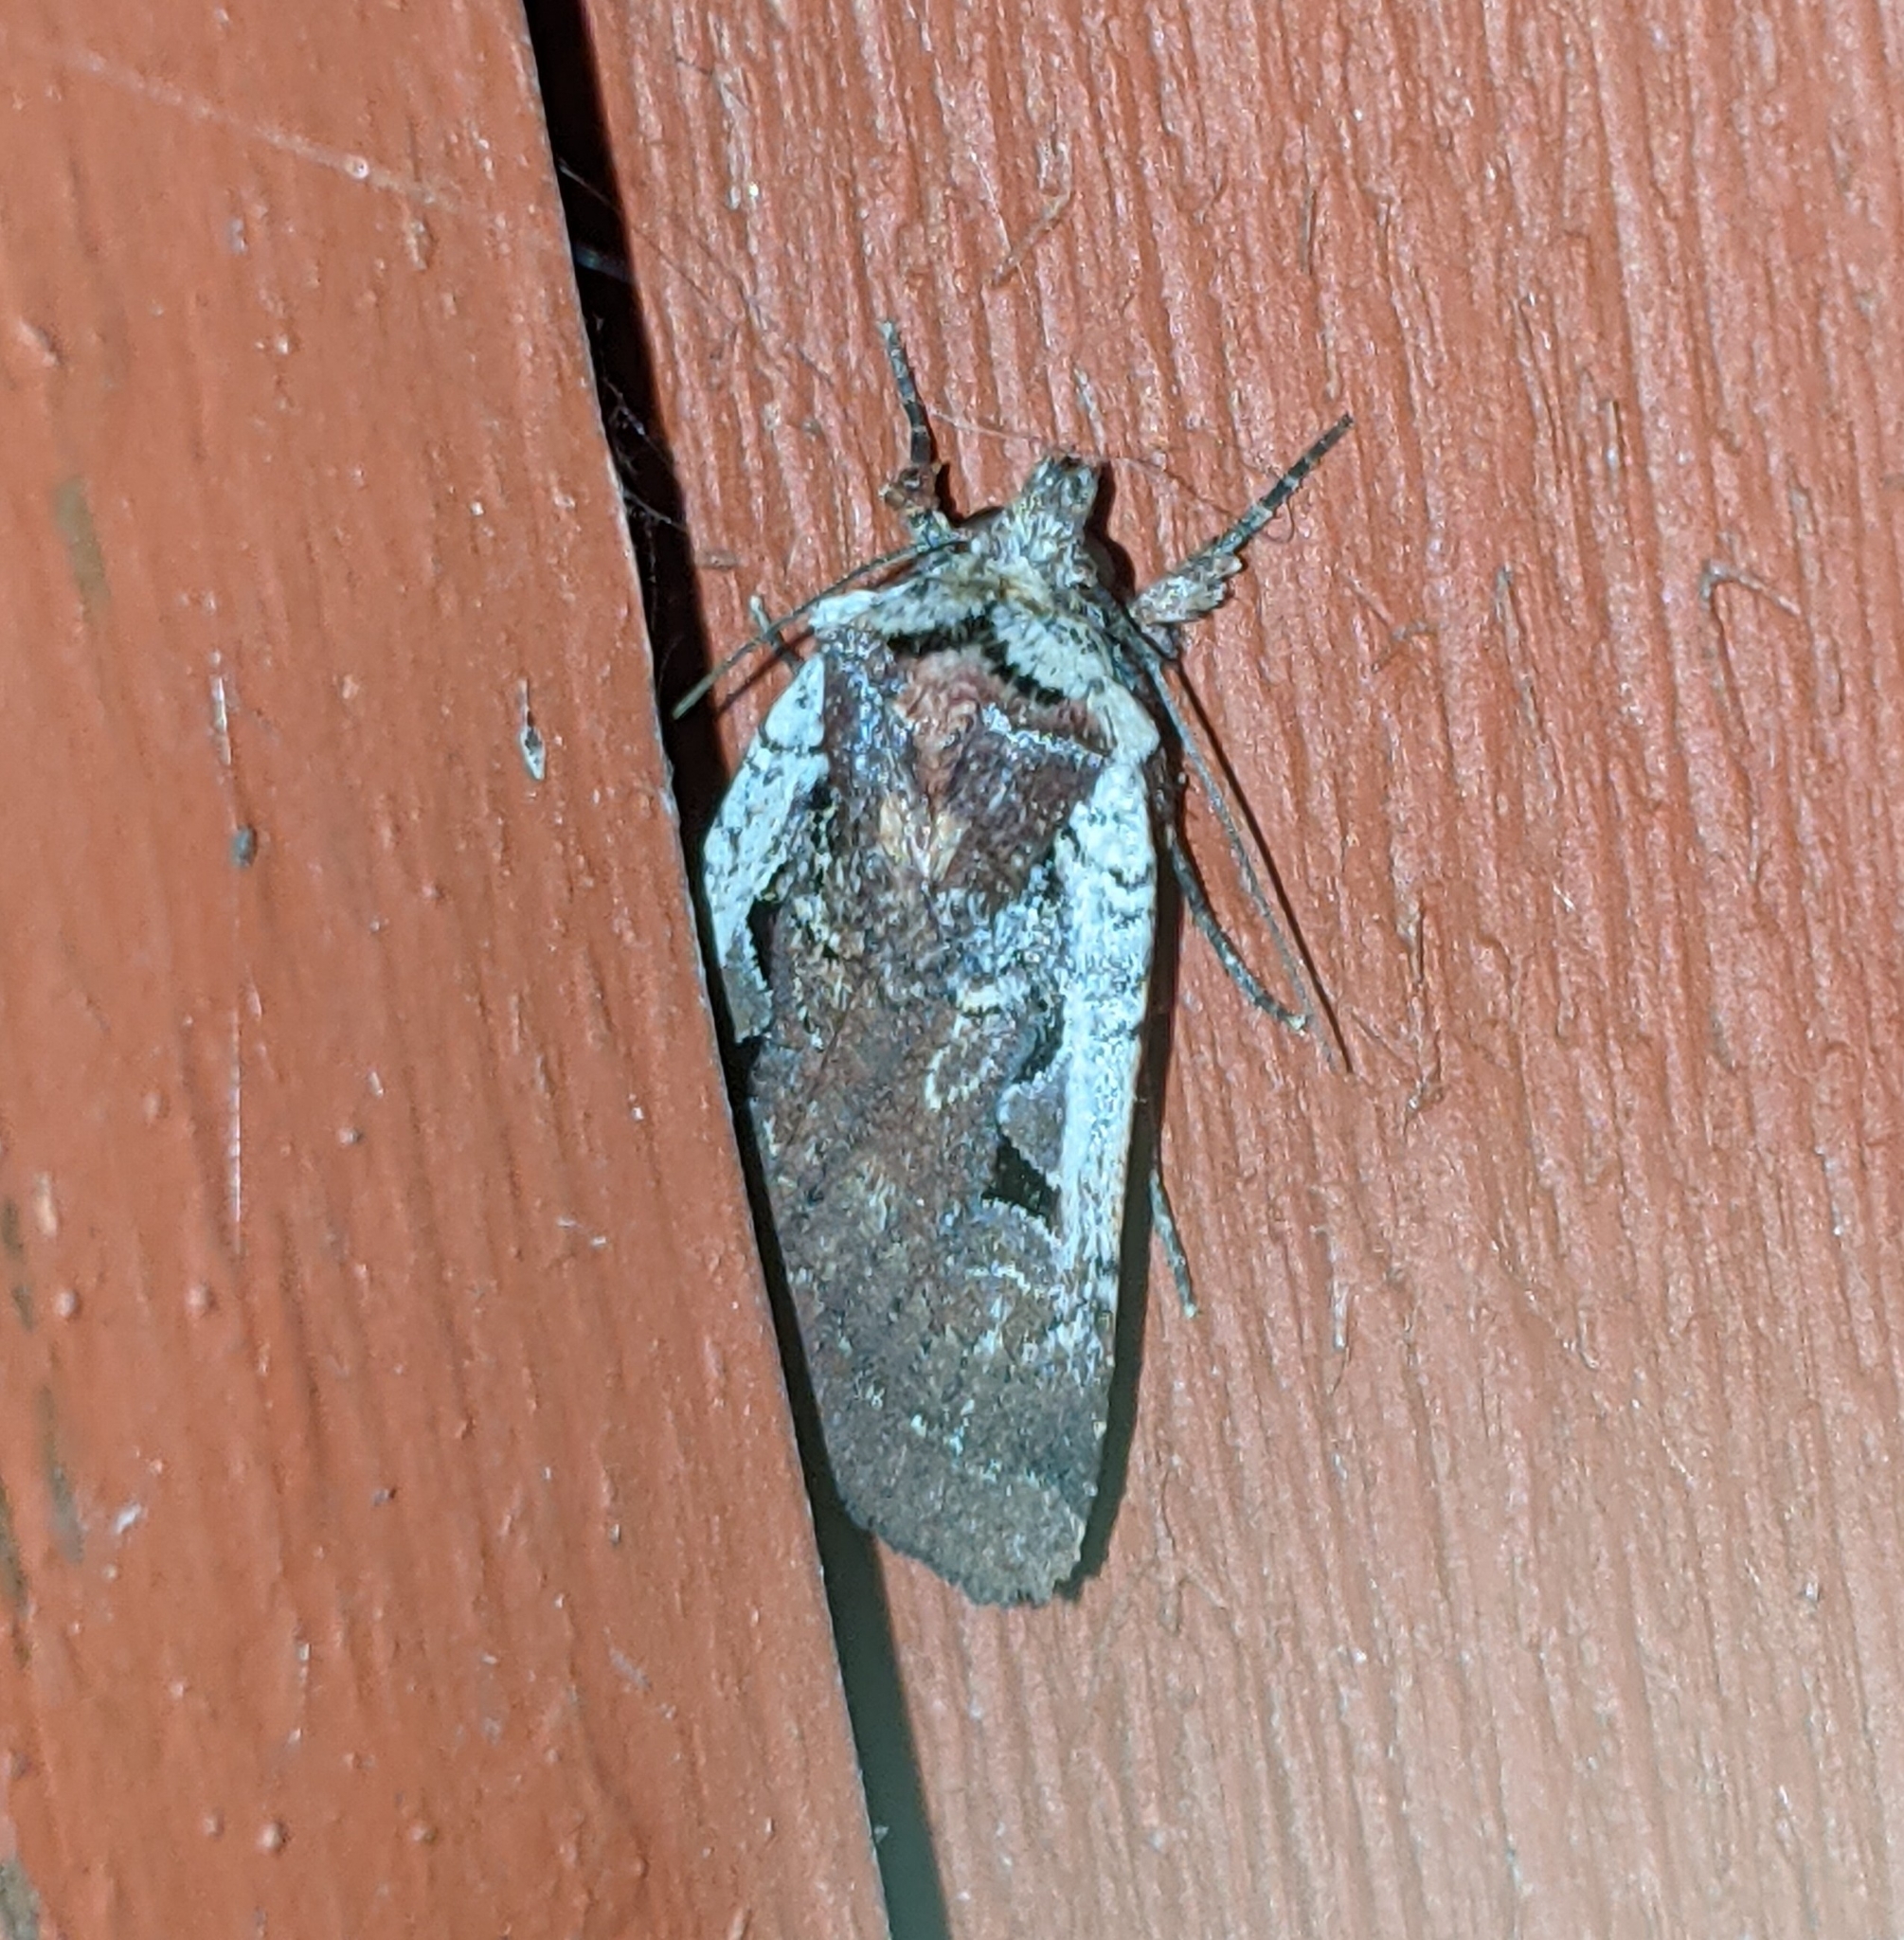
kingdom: Animalia
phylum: Arthropoda
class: Insecta
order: Lepidoptera
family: Noctuidae
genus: Parabagrotis
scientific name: Parabagrotis sulinaris
